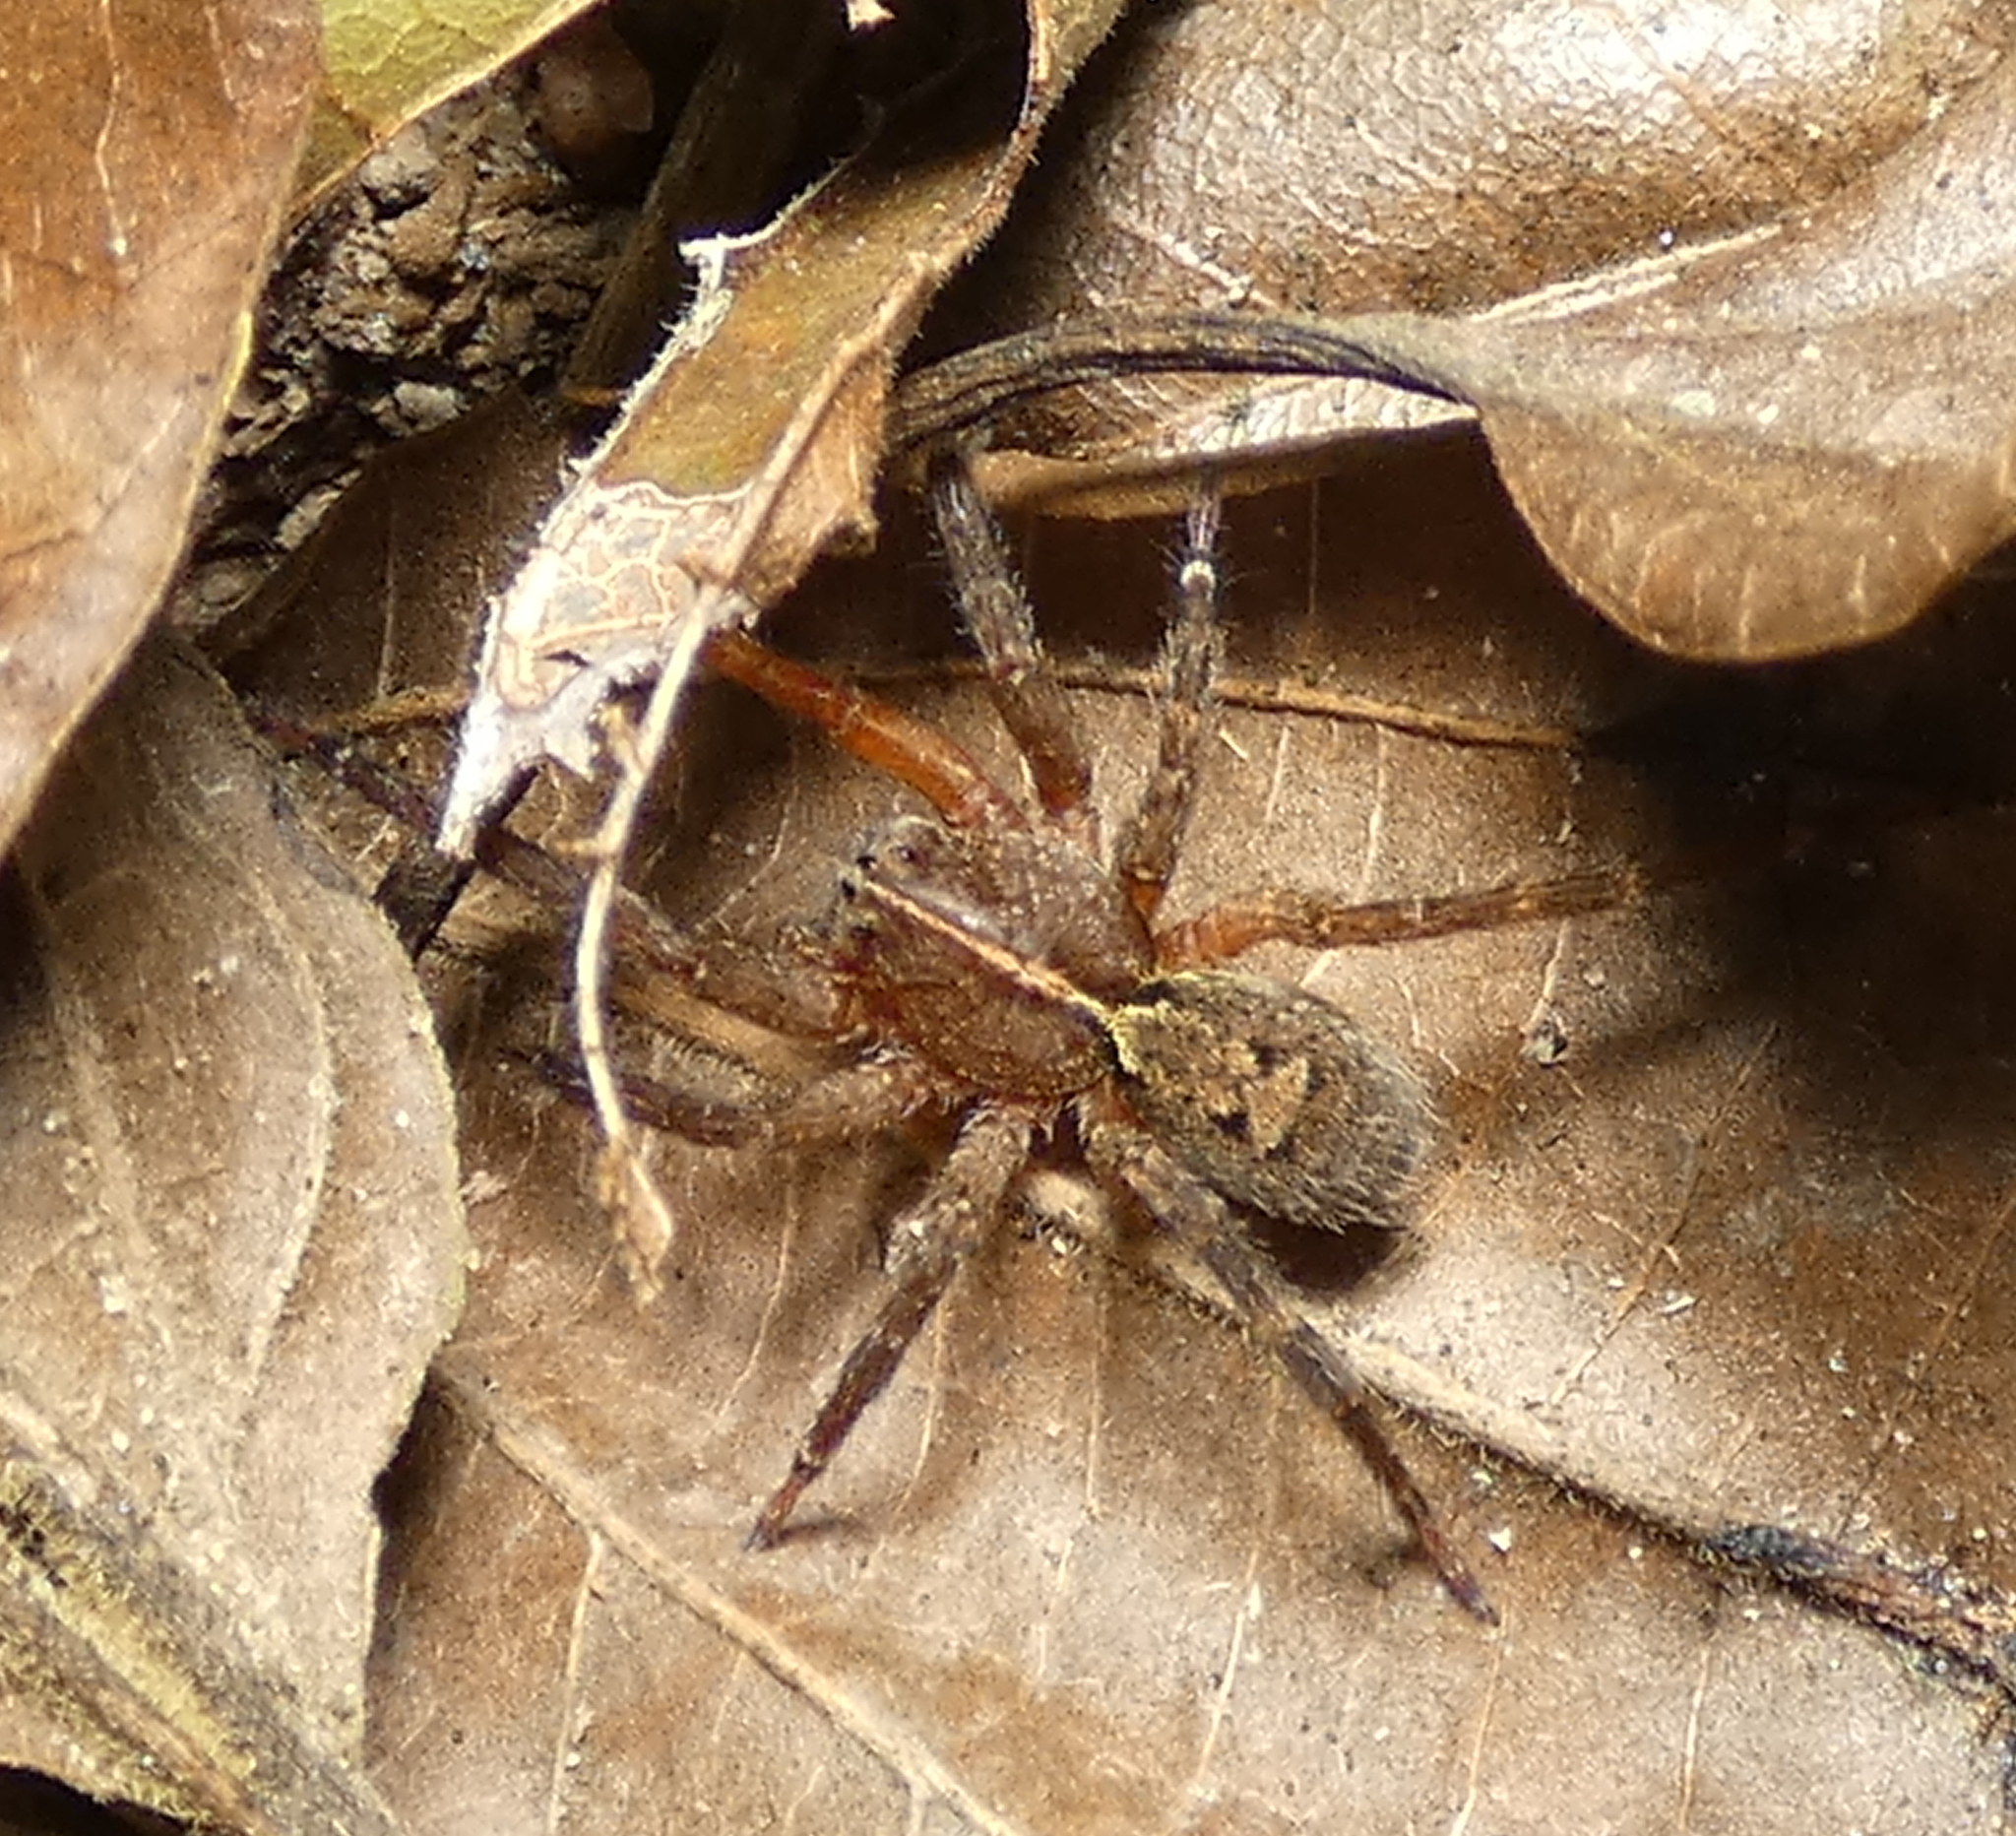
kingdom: Animalia
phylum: Arthropoda
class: Arachnida
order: Araneae
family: Ctenidae
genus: Ctenus
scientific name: Ctenus ornatus
